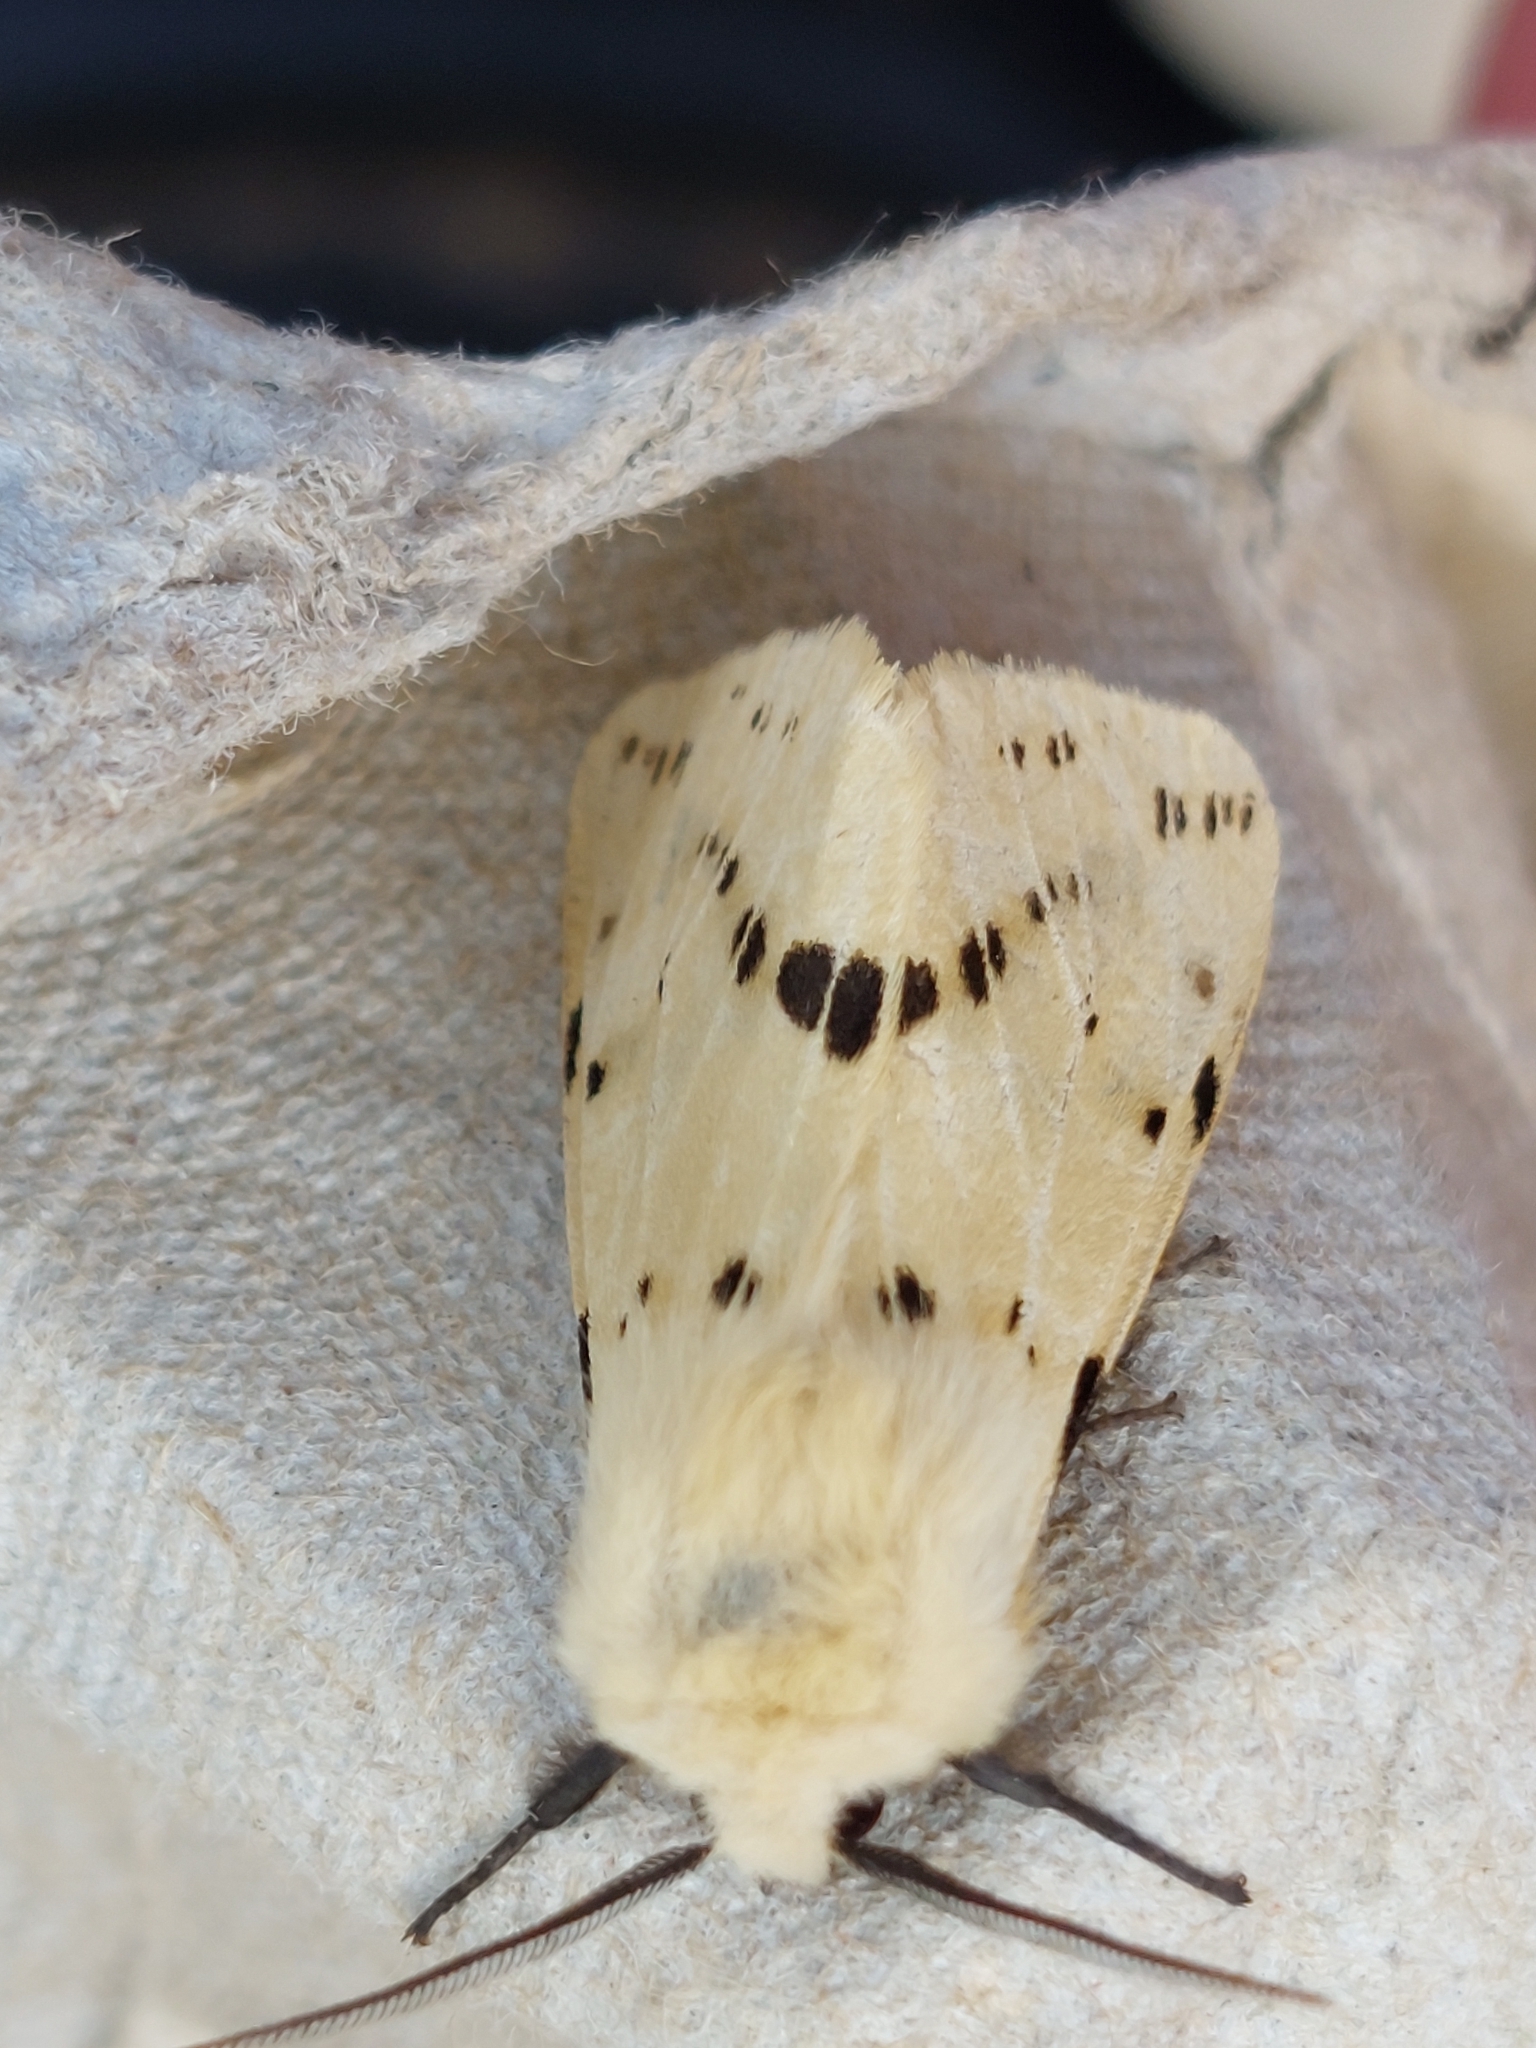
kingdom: Animalia
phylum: Arthropoda
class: Insecta
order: Lepidoptera
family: Erebidae
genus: Spilarctia
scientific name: Spilarctia lutea
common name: Buff ermine
